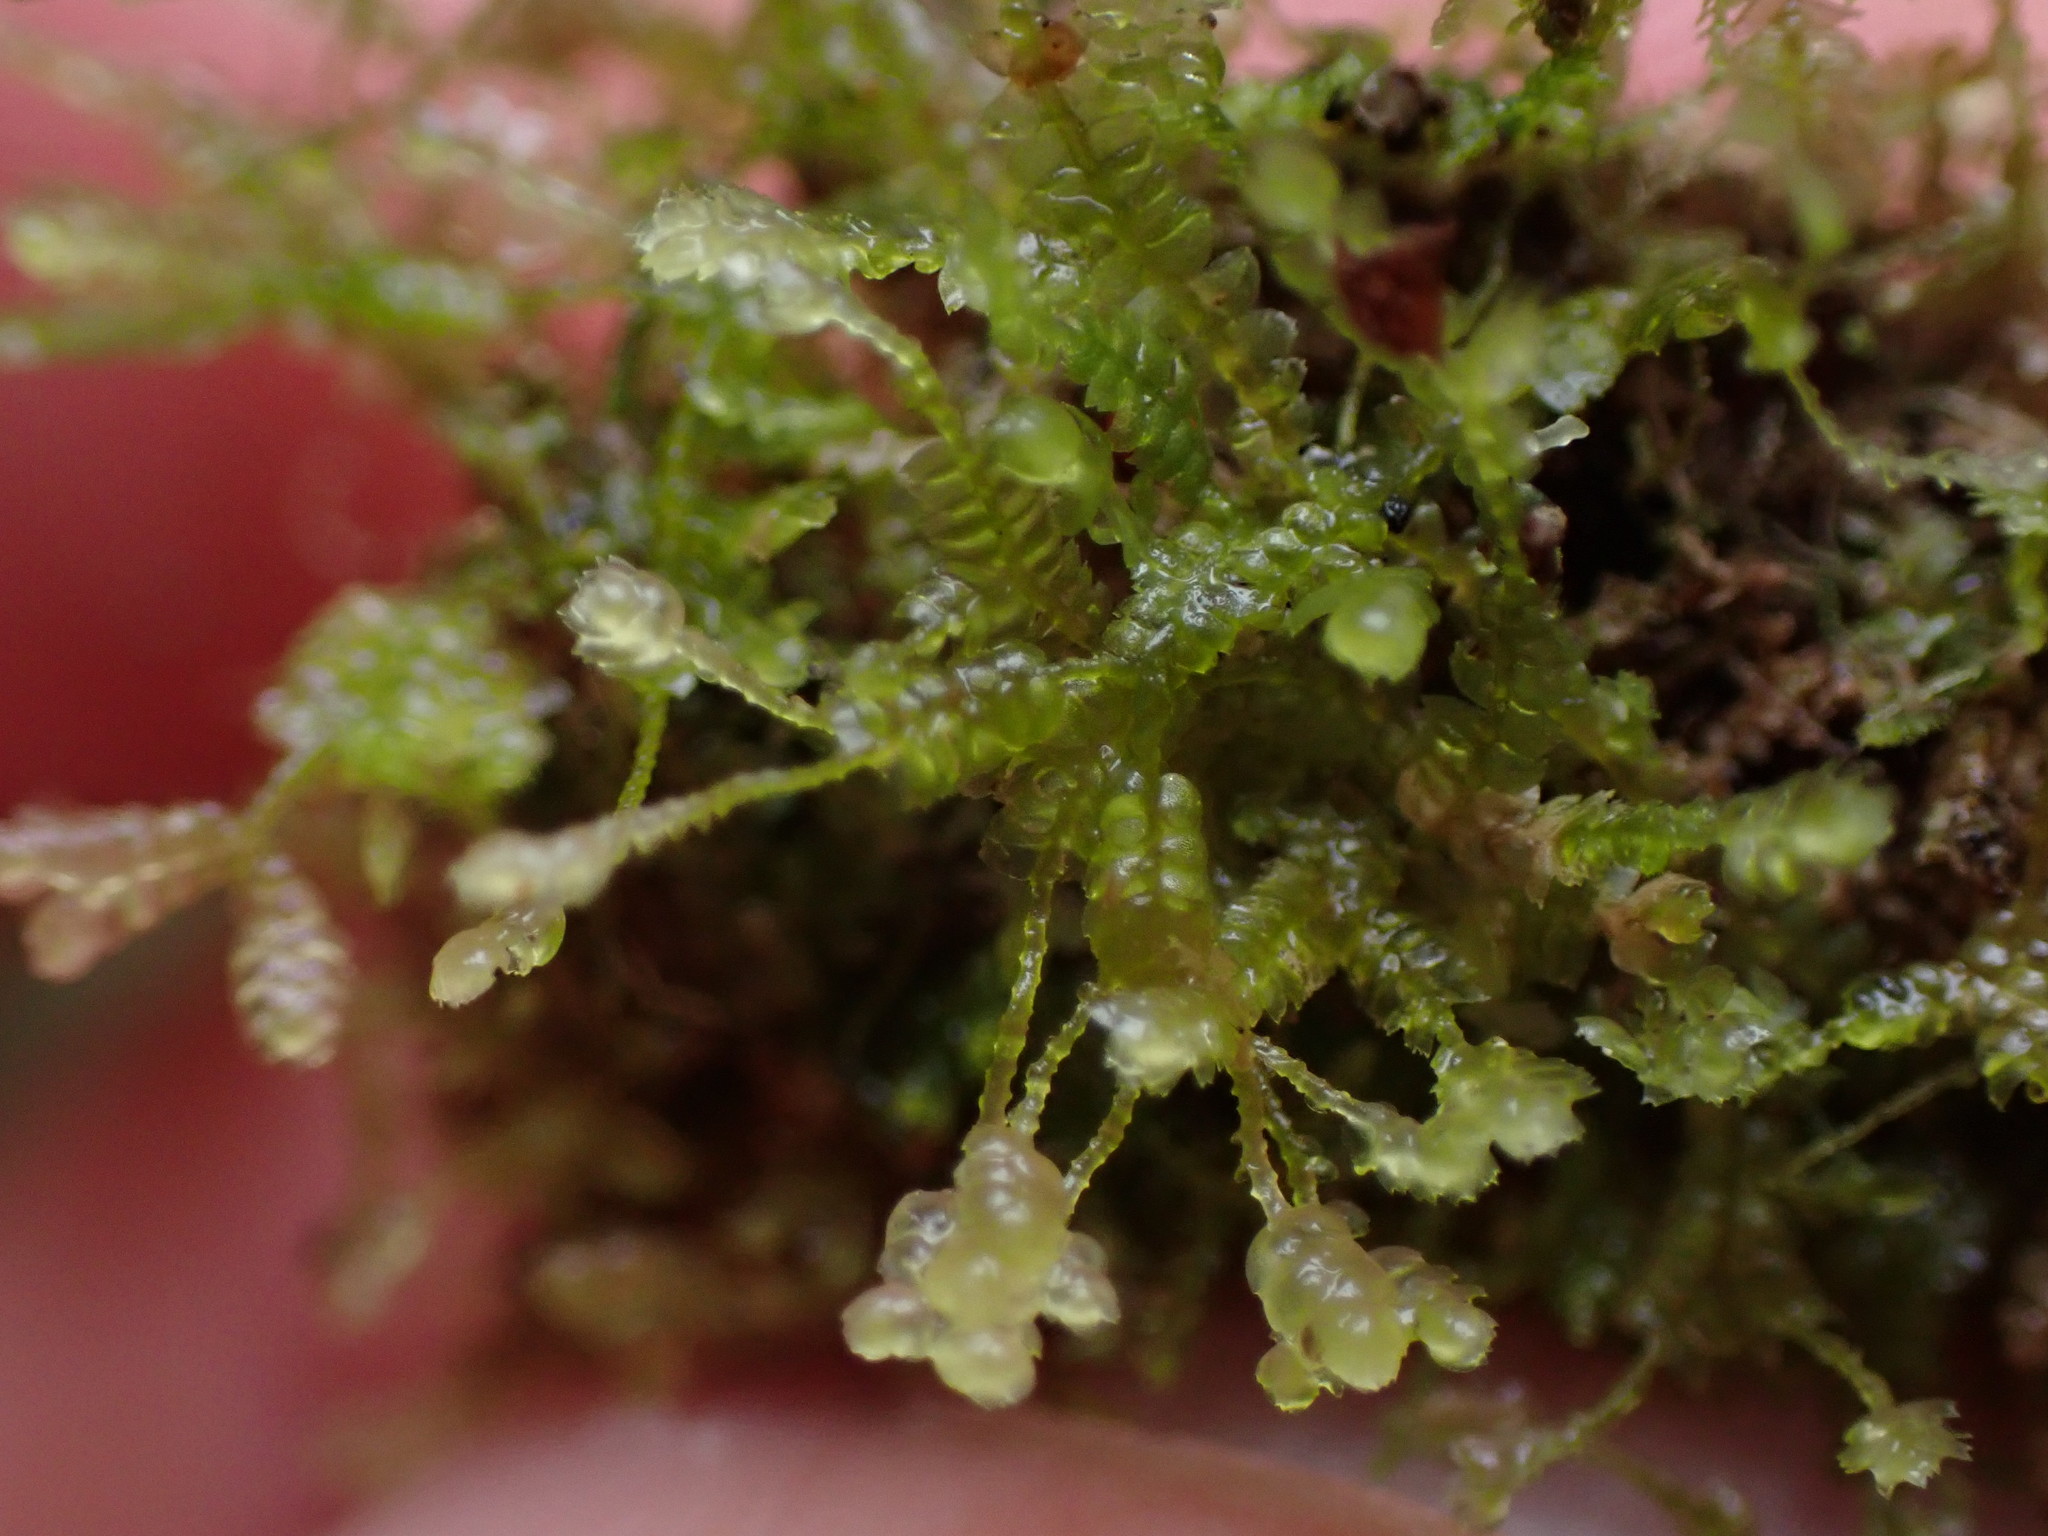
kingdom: Plantae
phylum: Marchantiophyta
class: Jungermanniopsida
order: Jungermanniales
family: Lepidoziaceae
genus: Bazzania
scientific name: Bazzania denudata
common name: Naked whipwort
